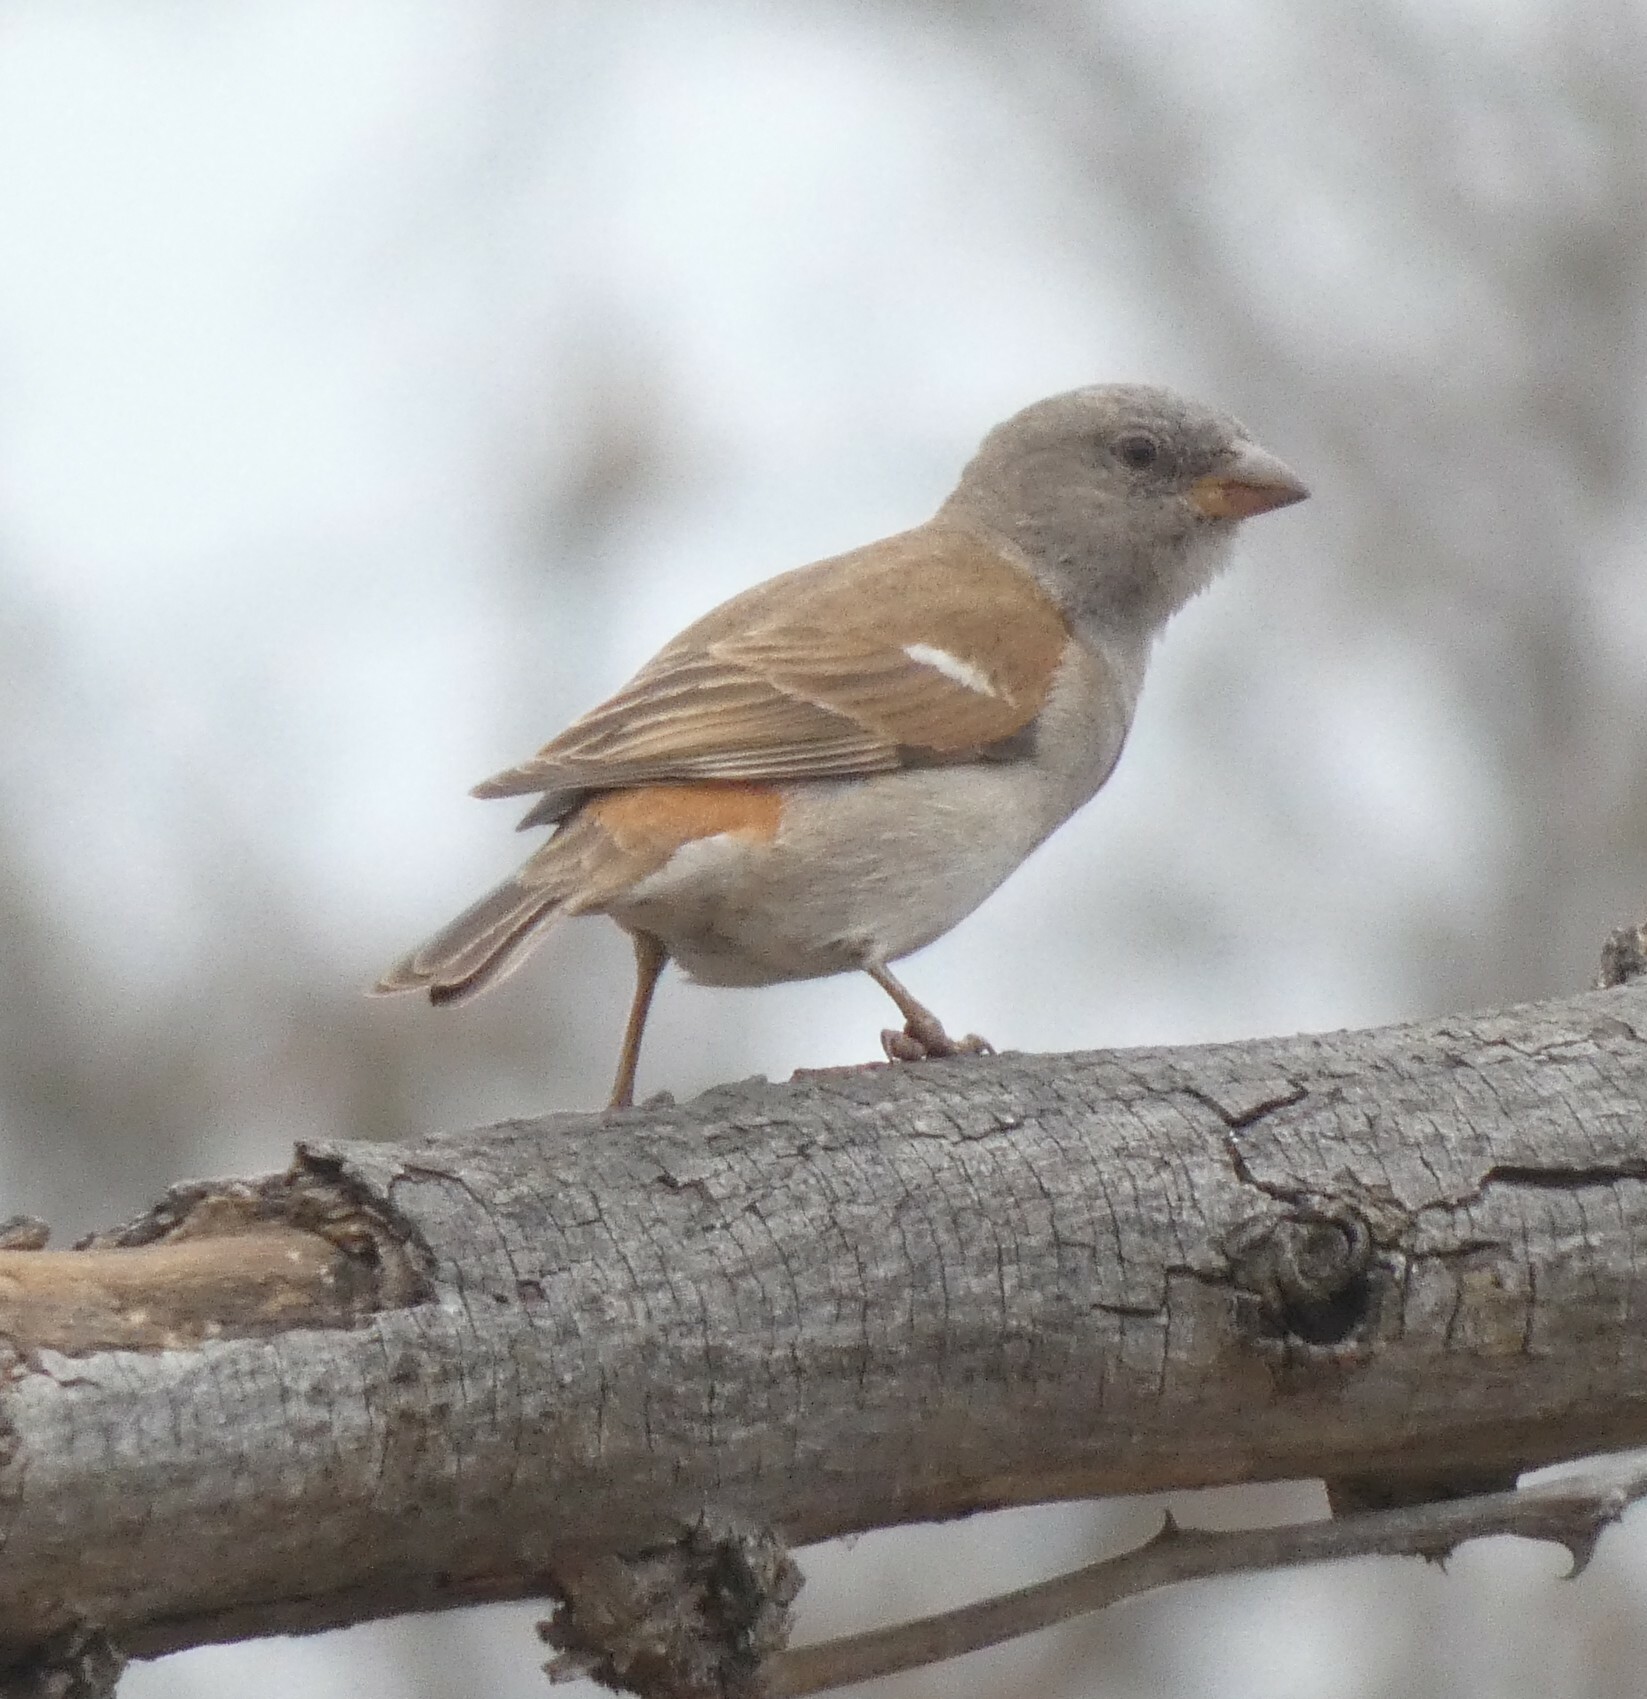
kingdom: Animalia
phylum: Chordata
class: Aves
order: Passeriformes
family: Passeridae
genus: Passer
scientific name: Passer diffusus
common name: Southern grey-headed sparrow
